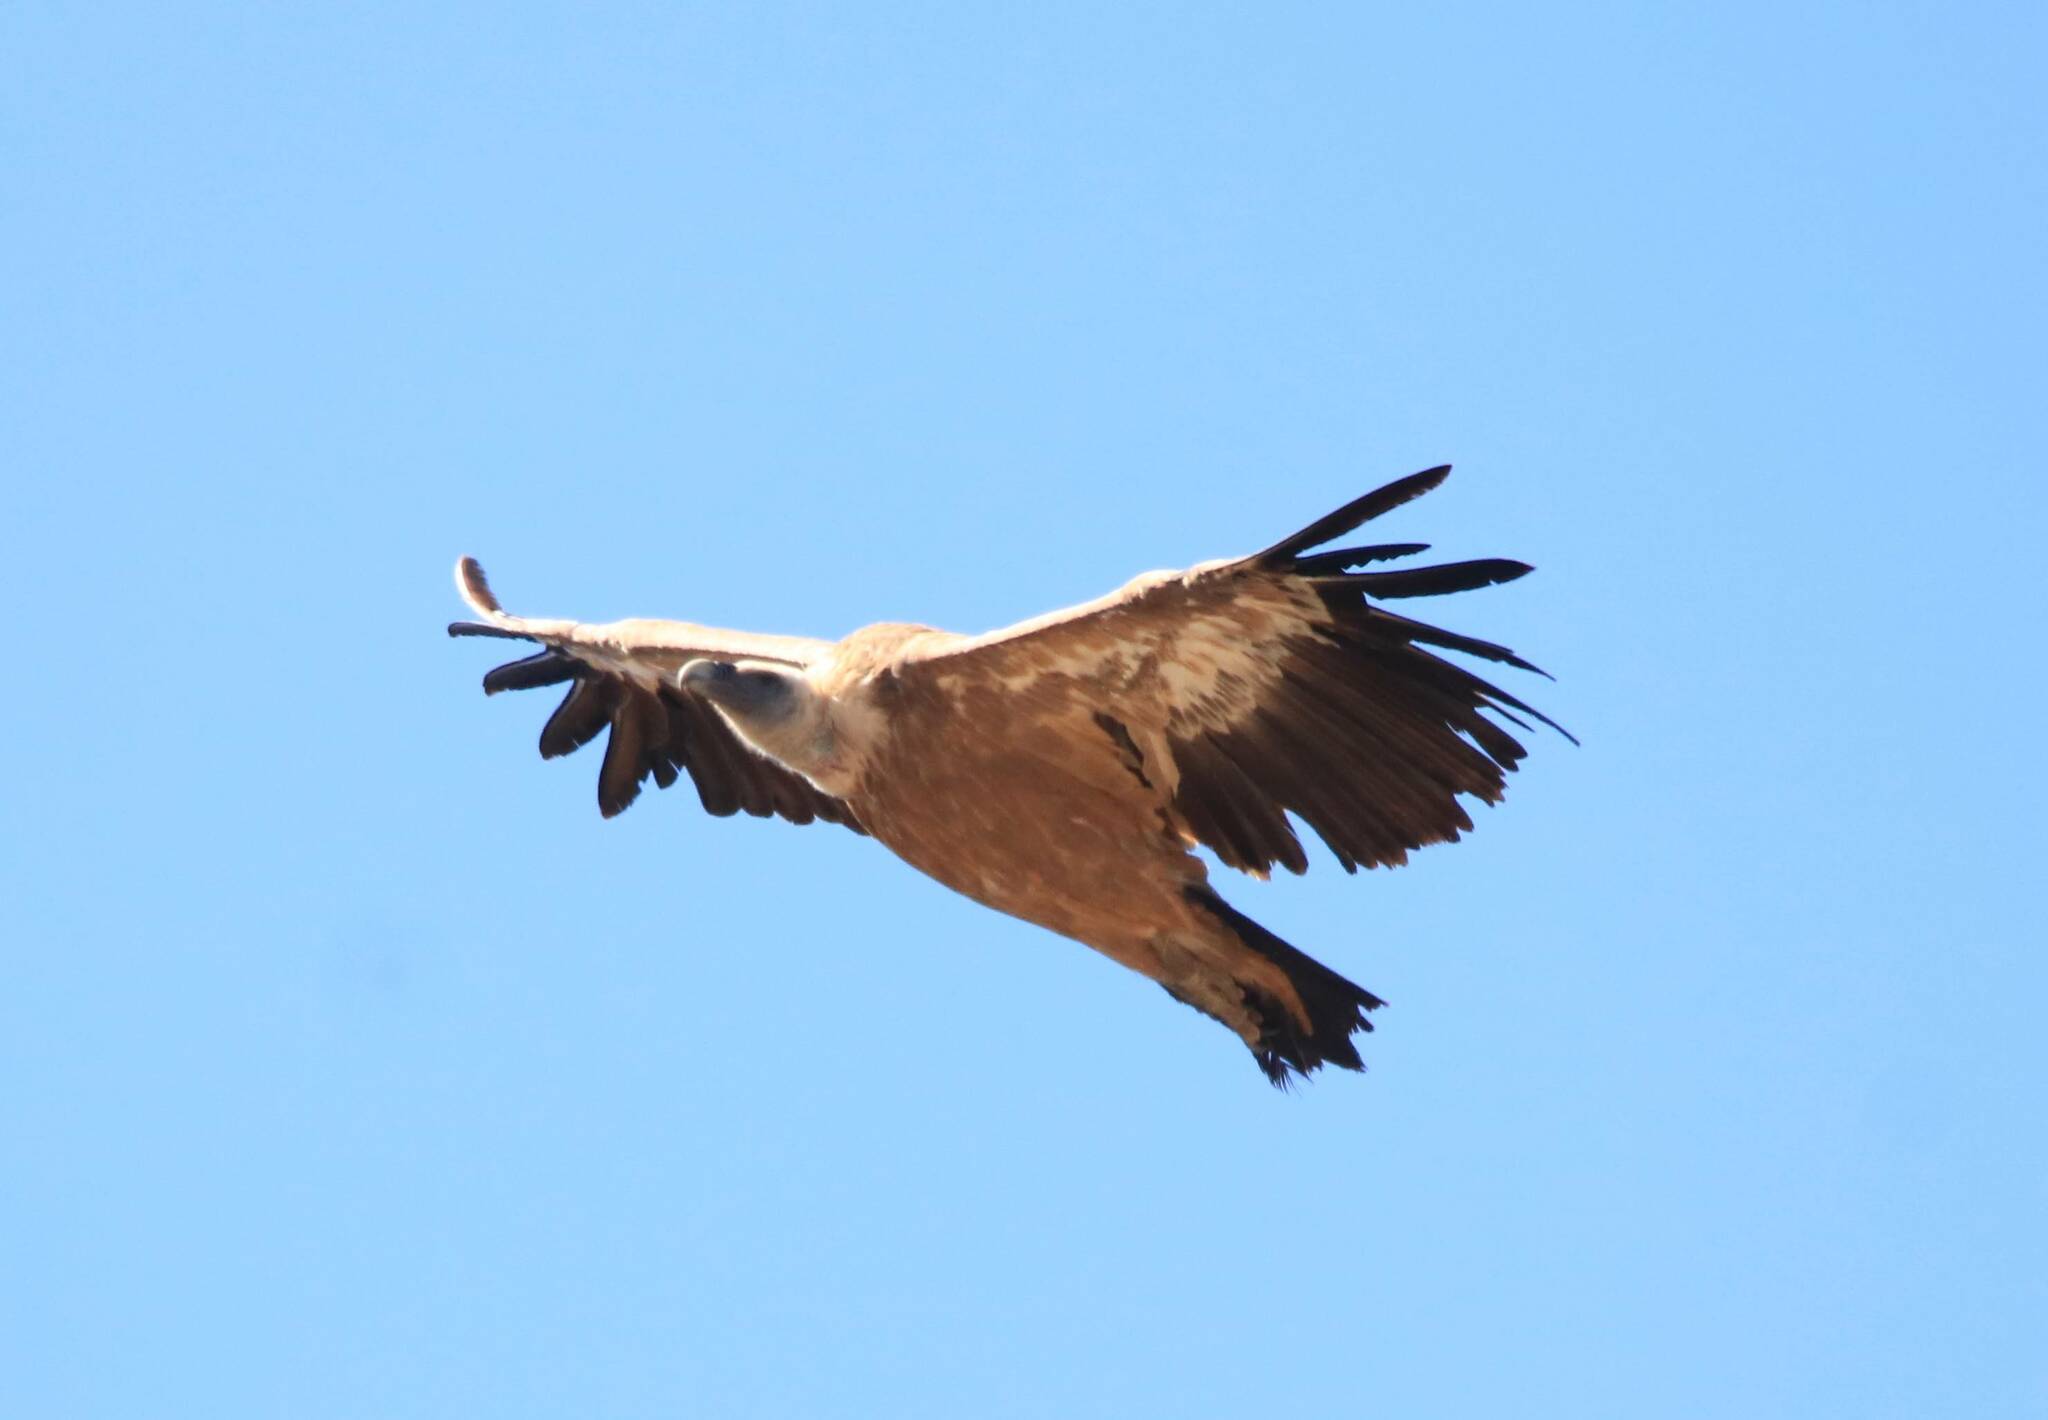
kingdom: Animalia
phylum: Chordata
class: Aves
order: Accipitriformes
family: Accipitridae
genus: Gyps
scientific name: Gyps fulvus
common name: Griffon vulture
